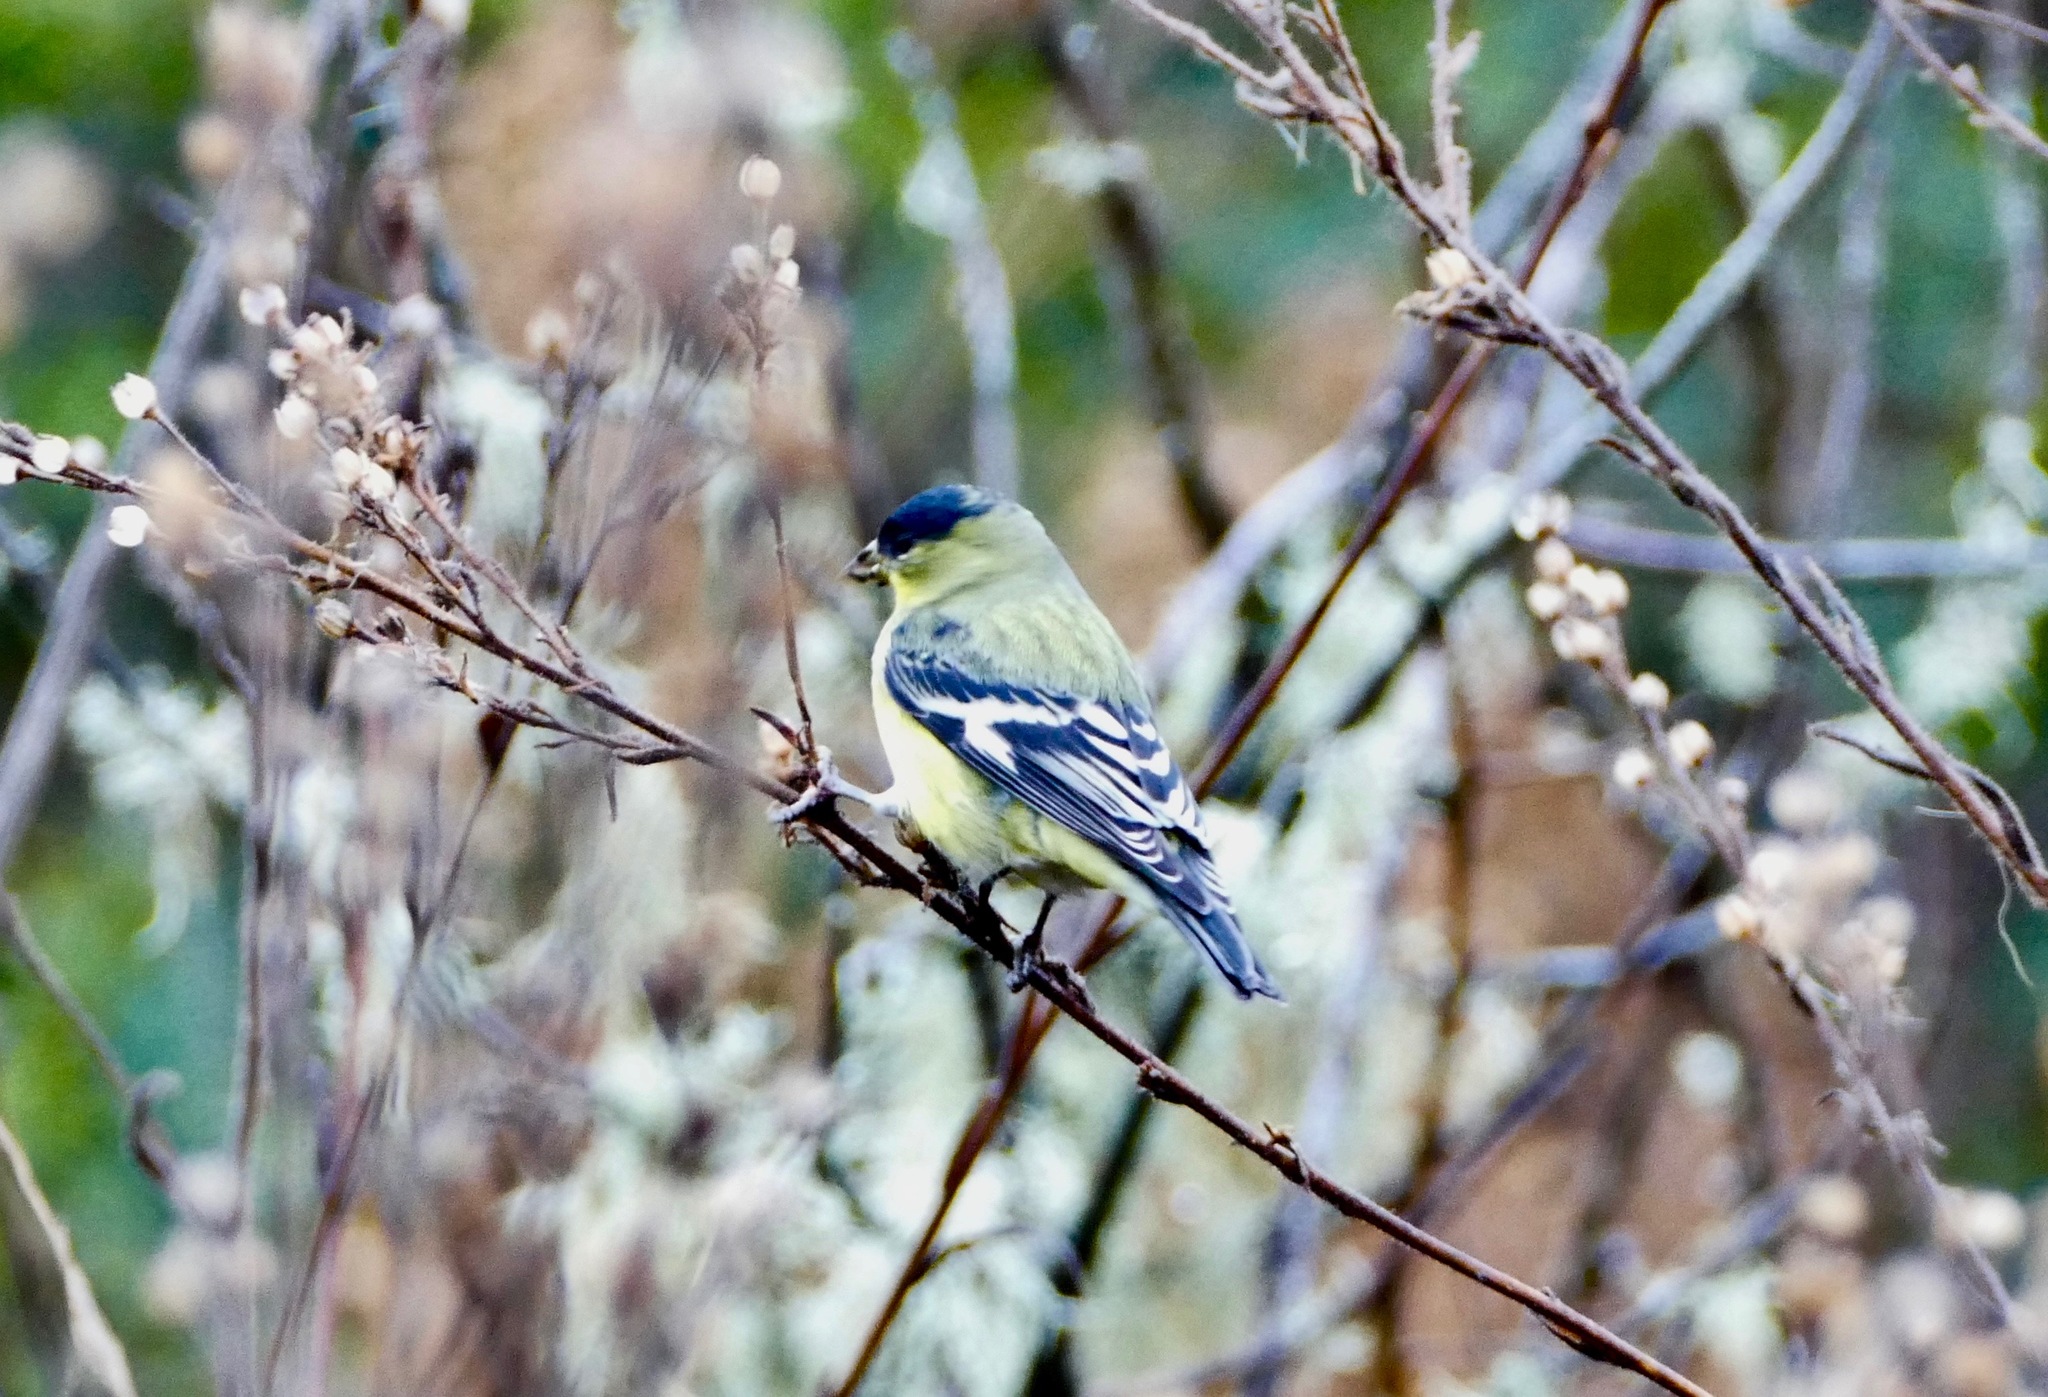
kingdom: Animalia
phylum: Chordata
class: Aves
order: Passeriformes
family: Fringillidae
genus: Spinus
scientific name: Spinus psaltria
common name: Lesser goldfinch
